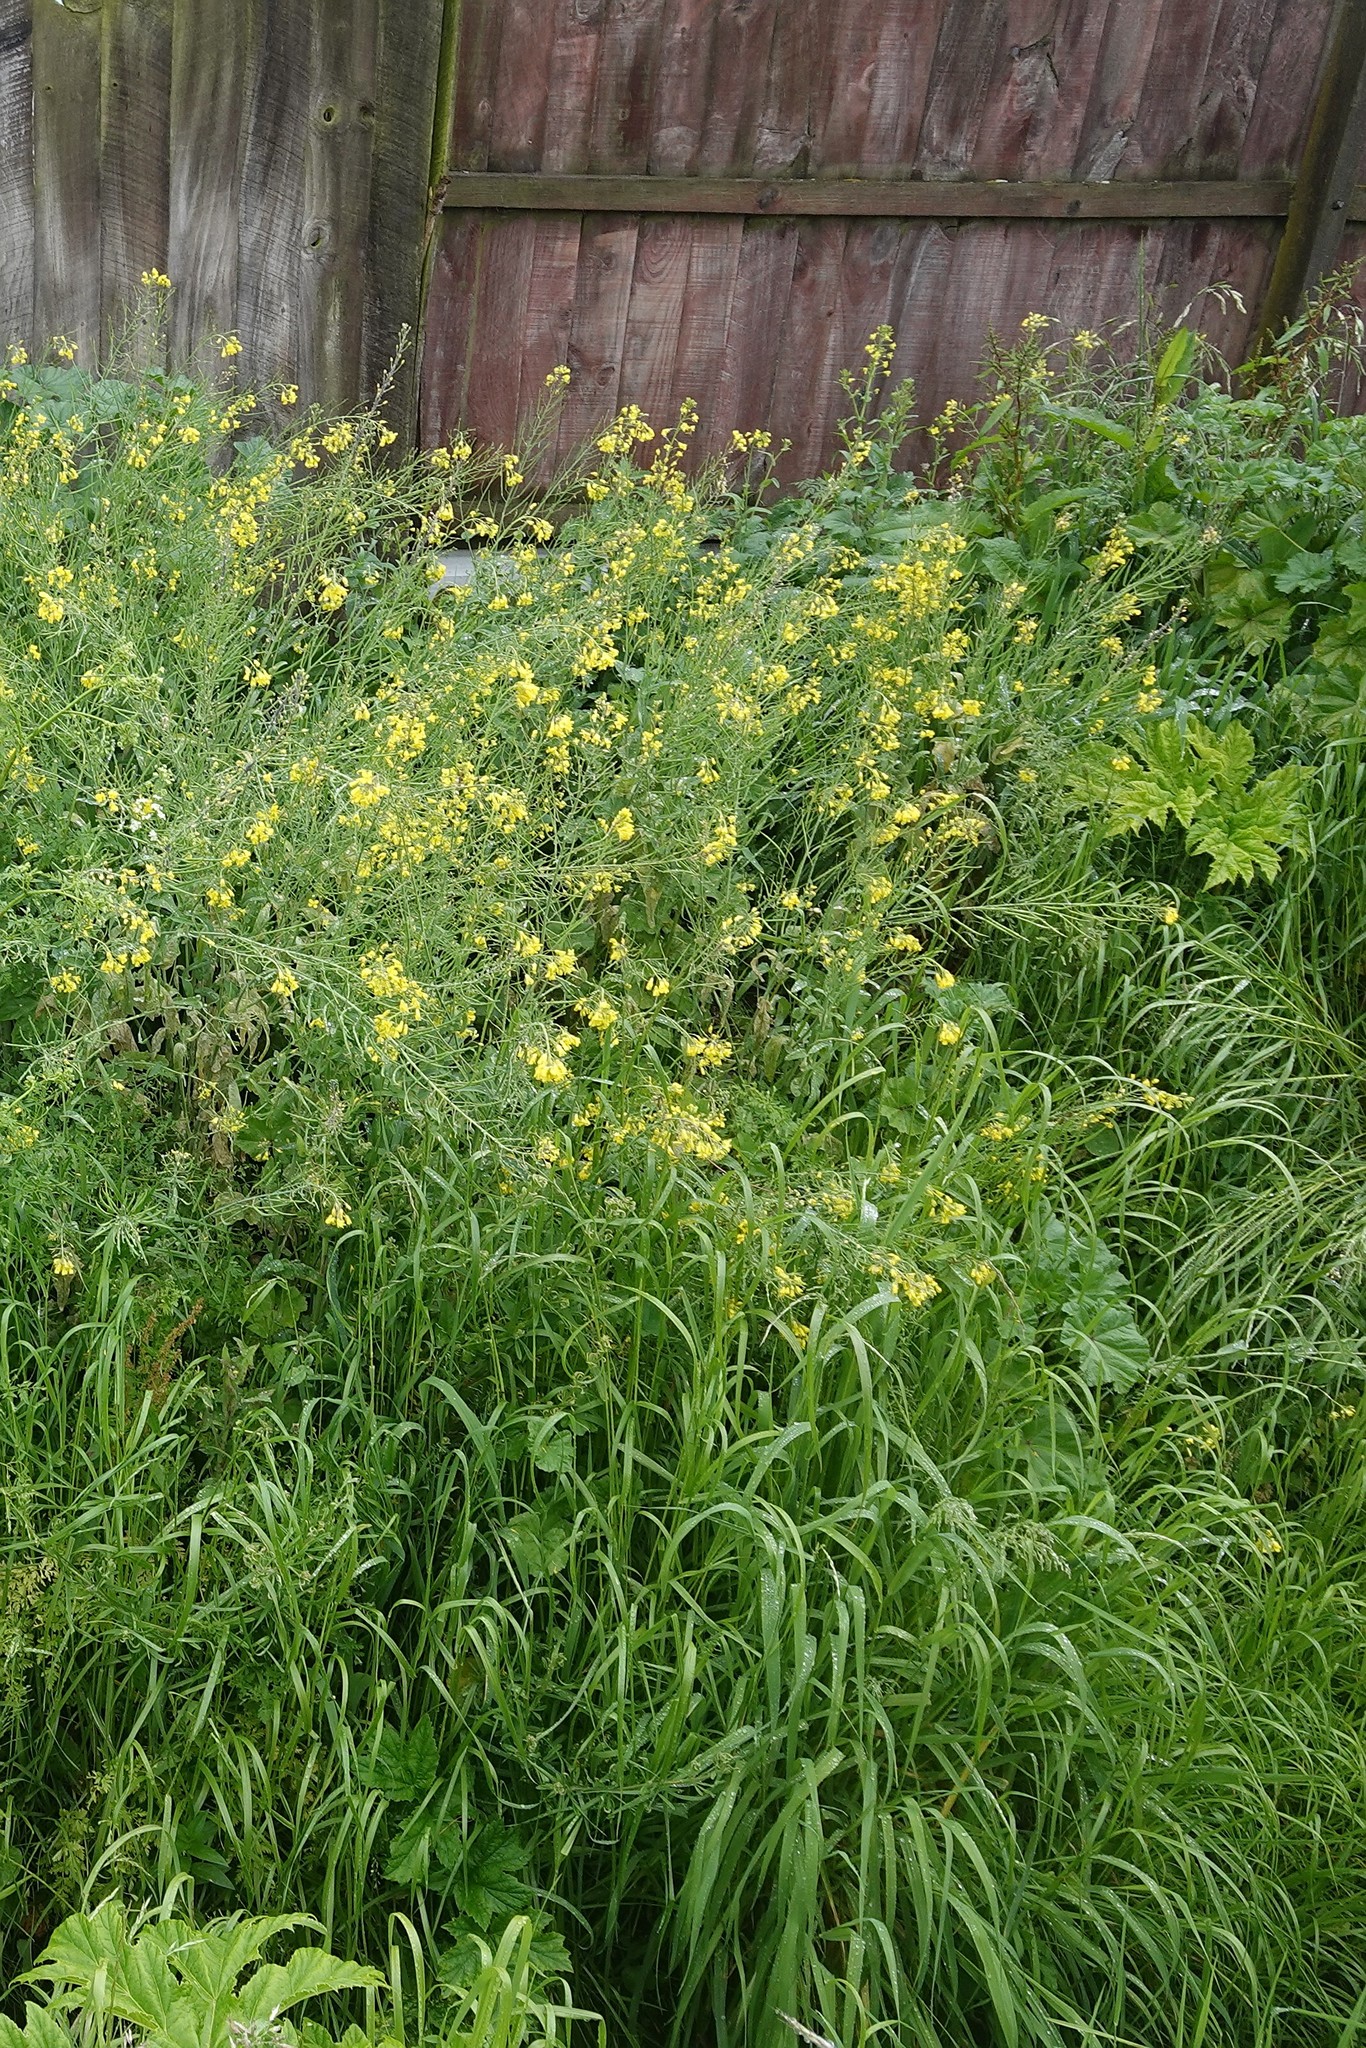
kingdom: Plantae
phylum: Tracheophyta
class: Magnoliopsida
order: Apiales
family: Apiaceae
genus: Heracleum
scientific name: Heracleum mantegazzianum
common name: Giant hogweed
